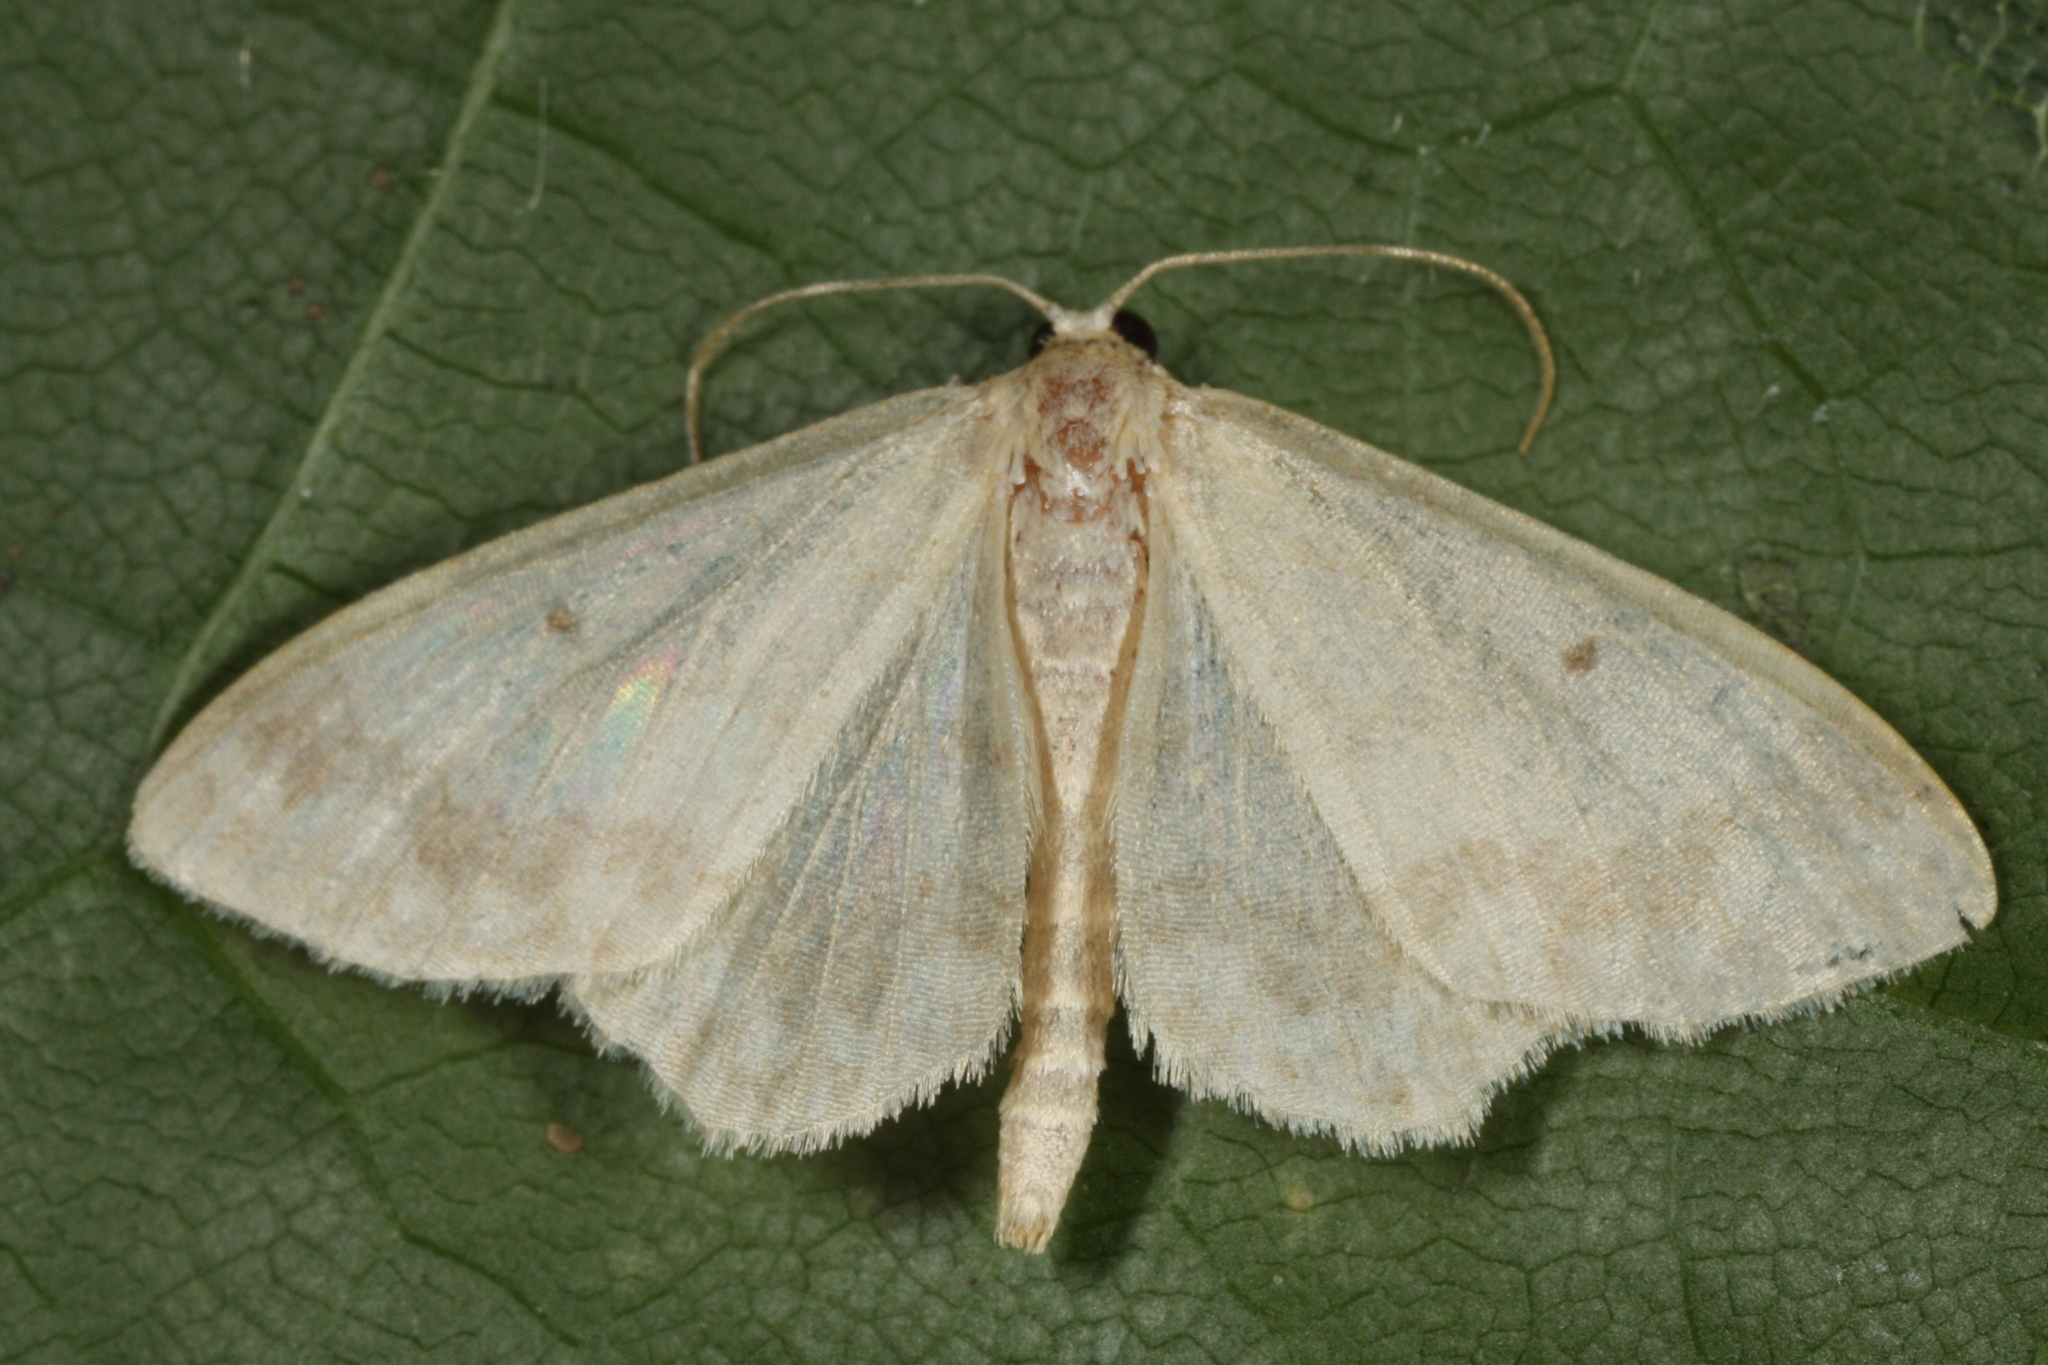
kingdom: Animalia
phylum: Arthropoda
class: Insecta
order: Lepidoptera
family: Geometridae
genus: Idaea
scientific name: Idaea biselata
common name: Small fan-footed wave
